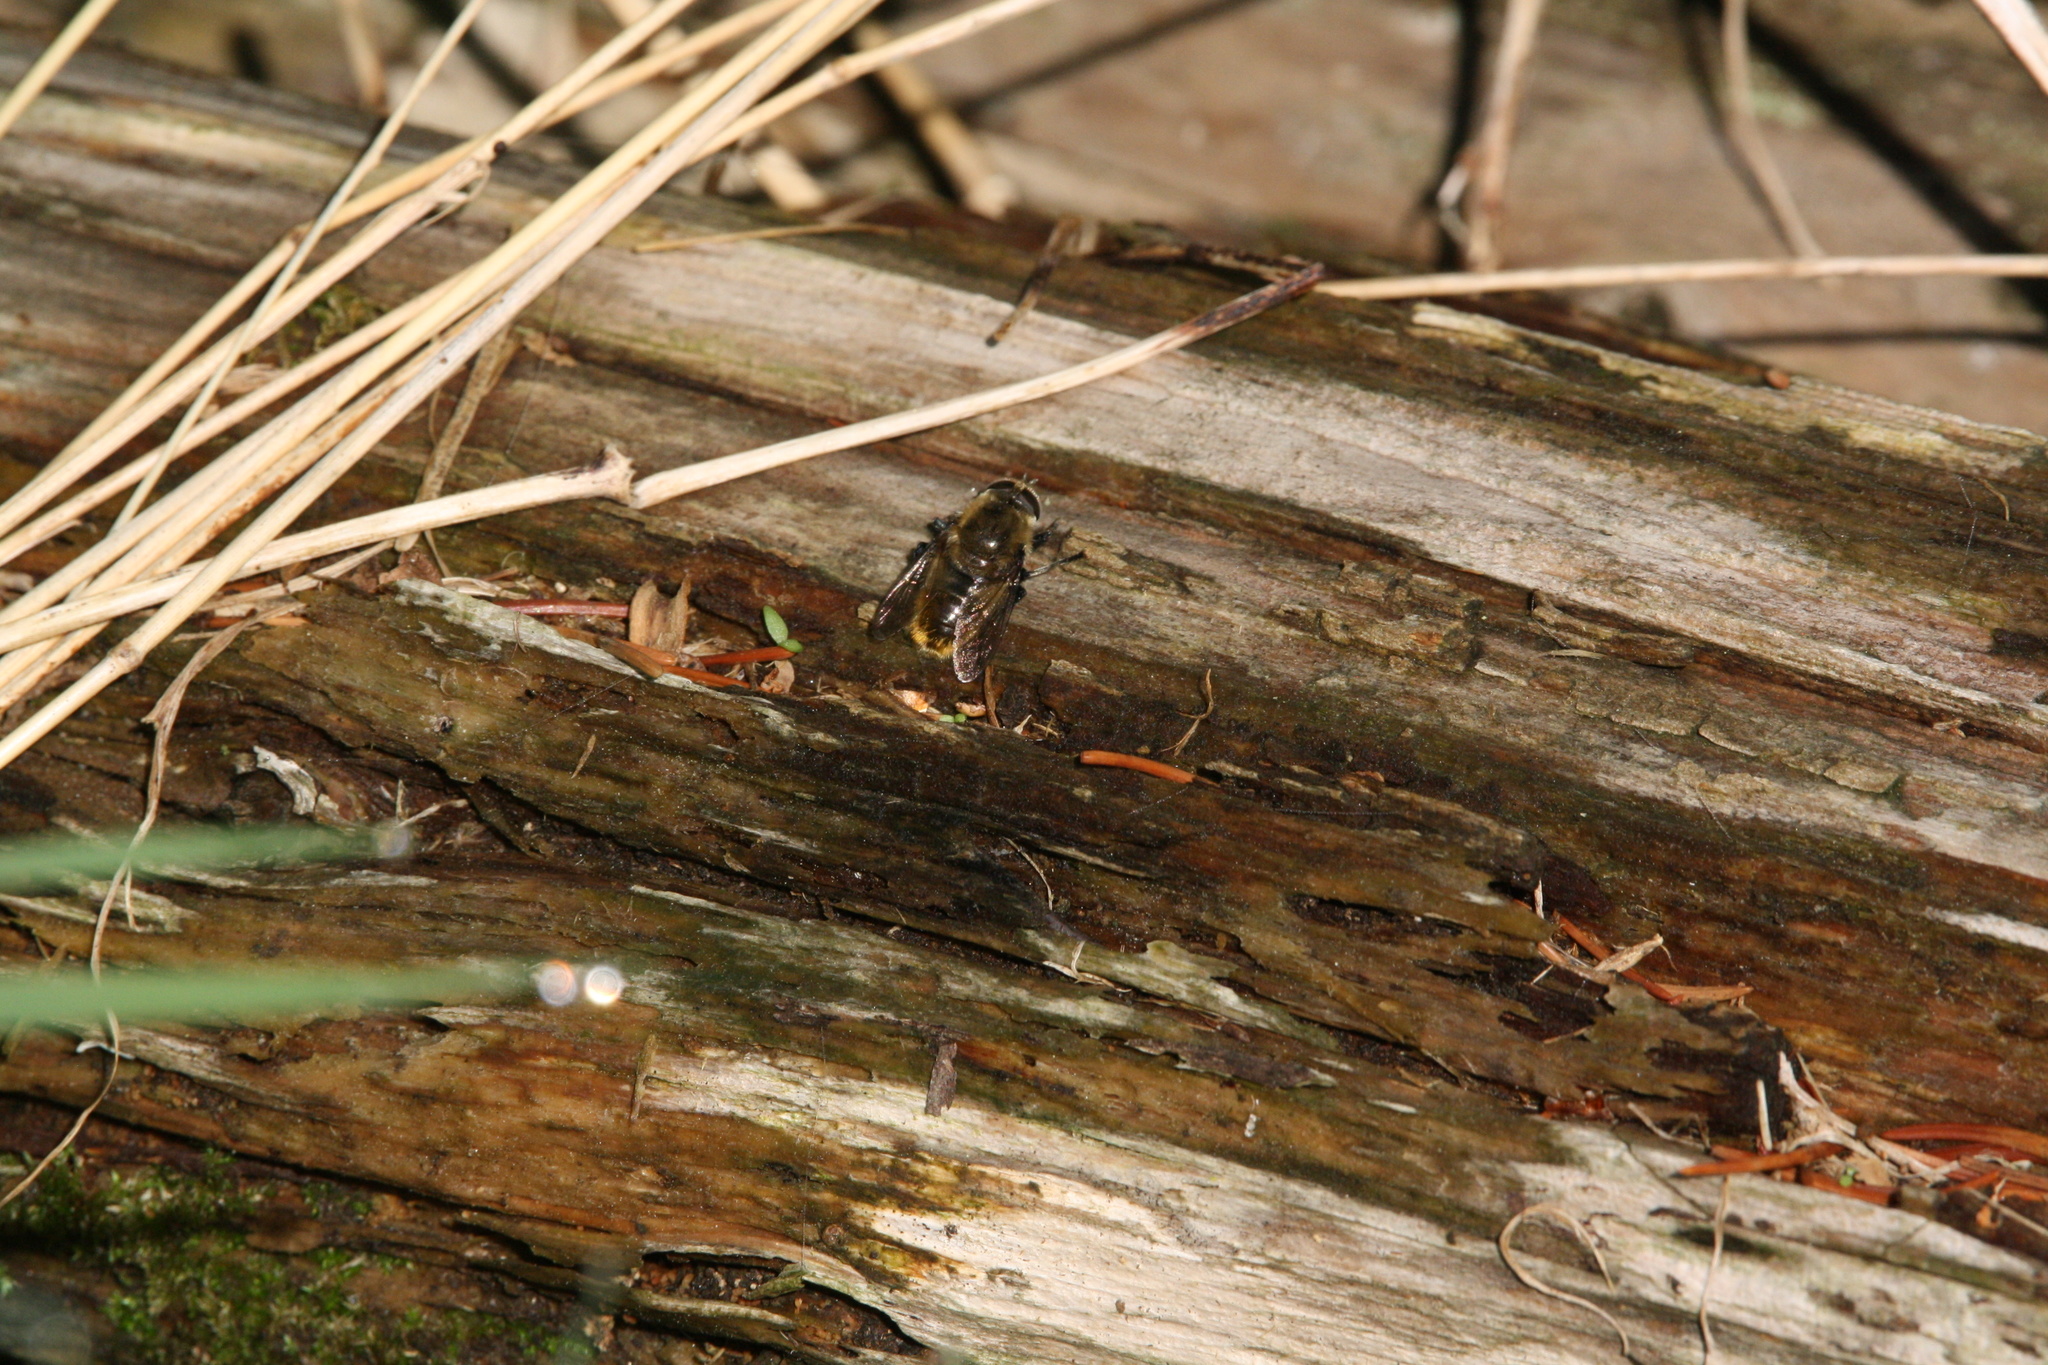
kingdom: Animalia
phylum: Arthropoda
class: Insecta
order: Diptera
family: Syrphidae
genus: Merodon
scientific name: Merodon equestris
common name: Greater bulb-fly
